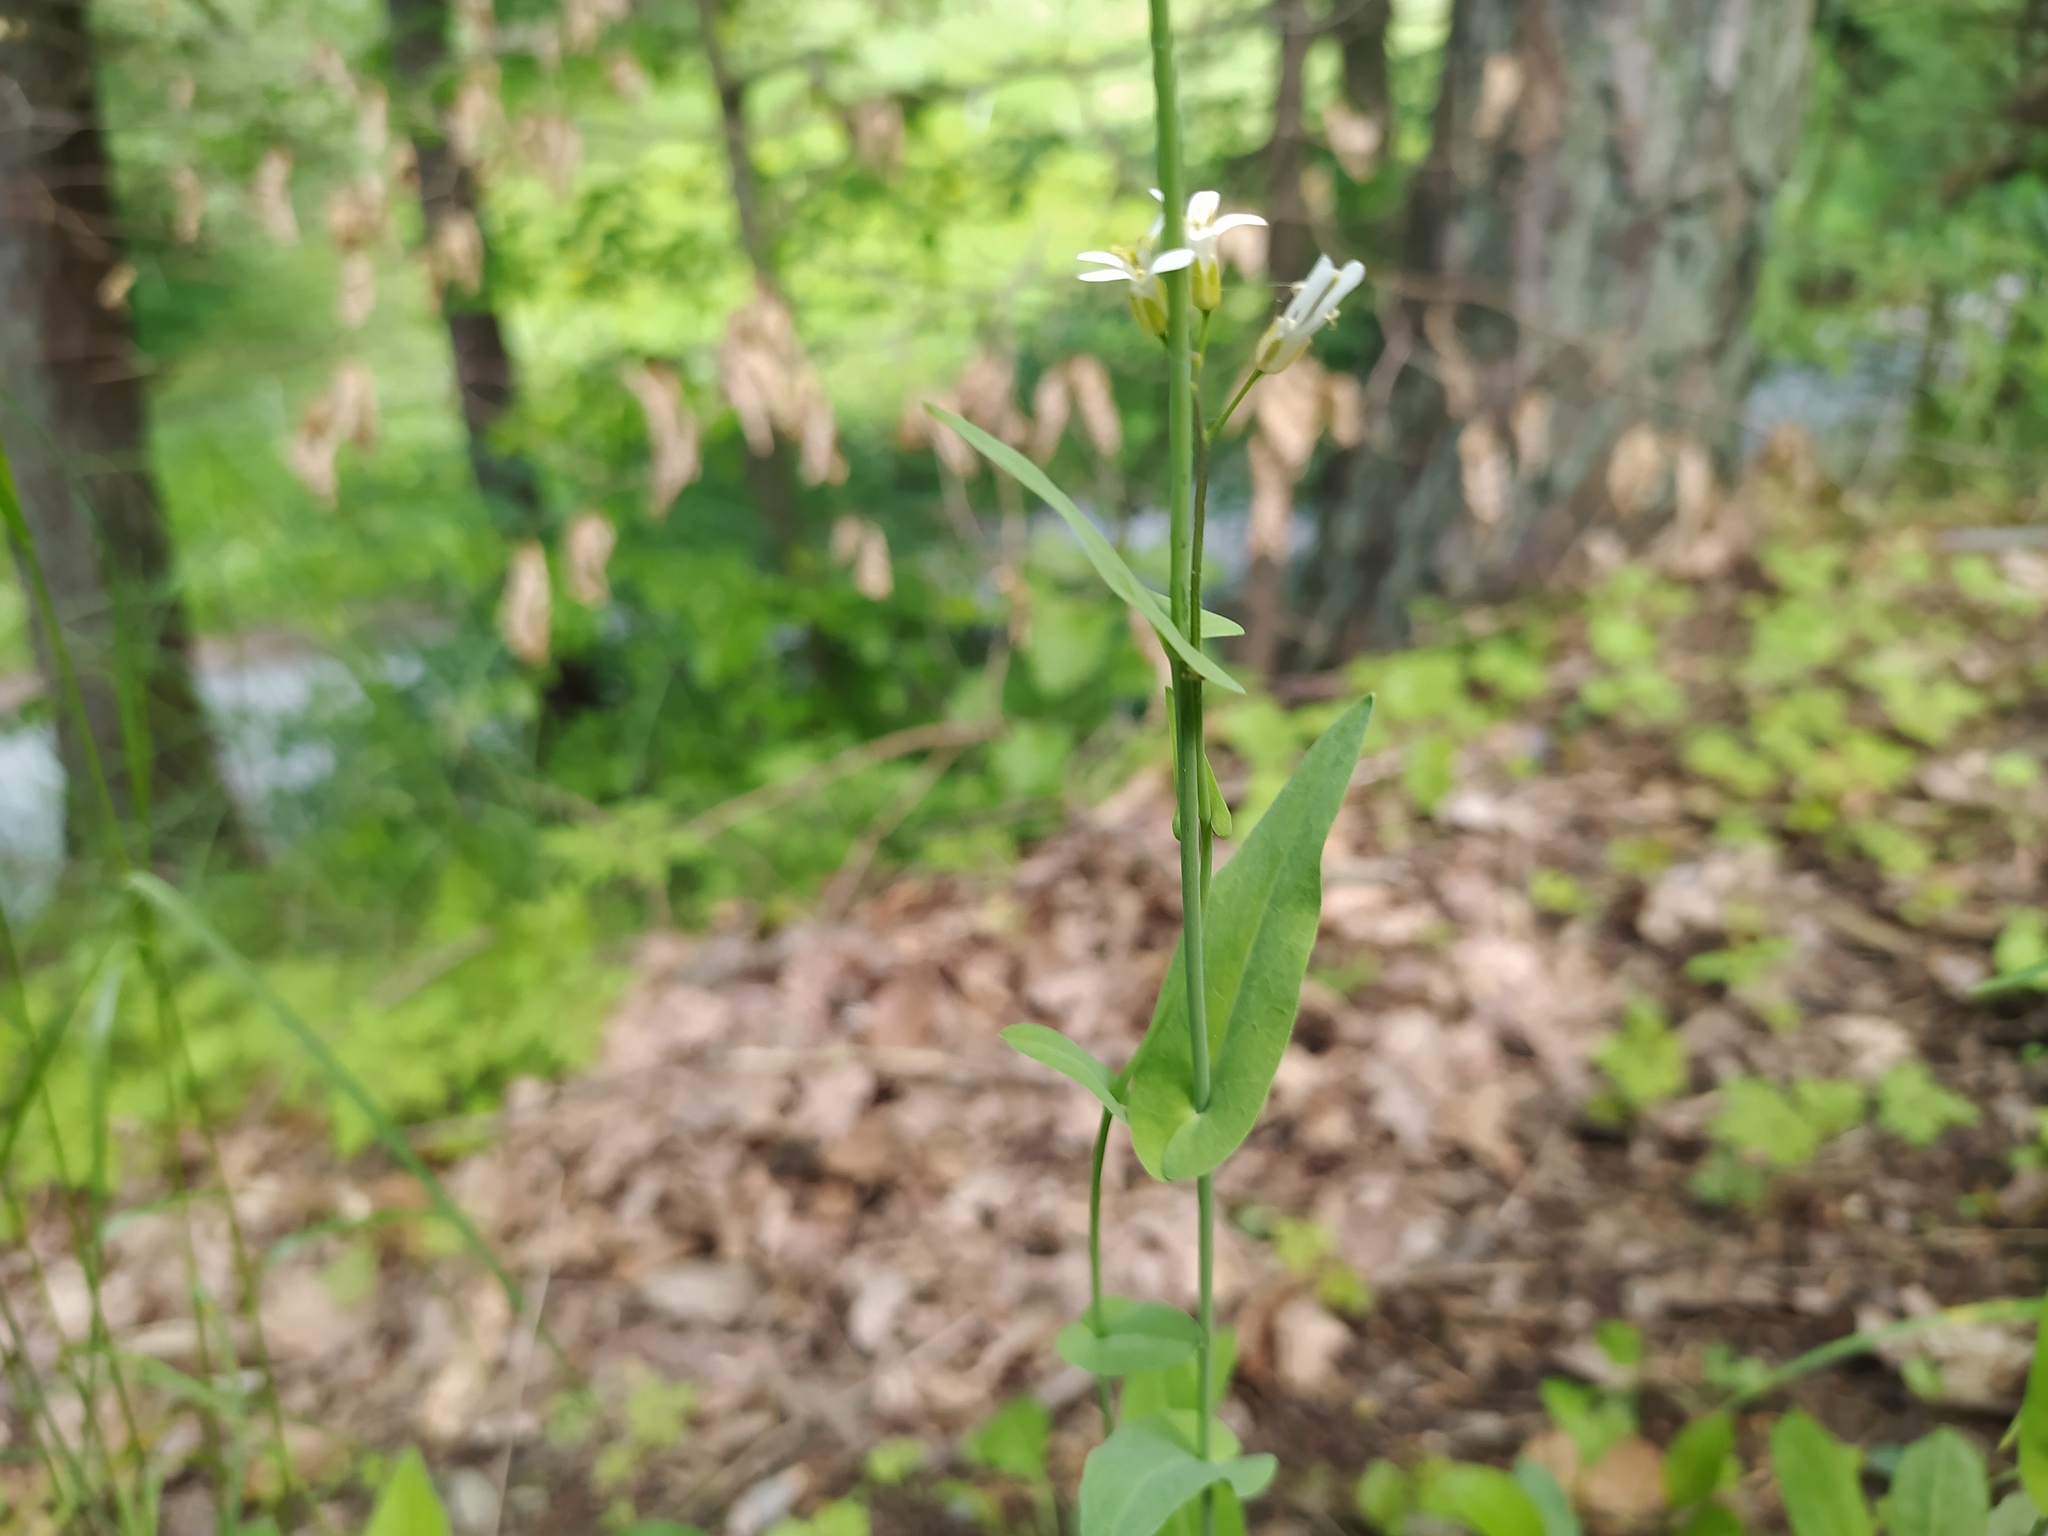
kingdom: Plantae
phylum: Tracheophyta
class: Magnoliopsida
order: Brassicales
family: Brassicaceae
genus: Fourraea
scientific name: Fourraea alpina
